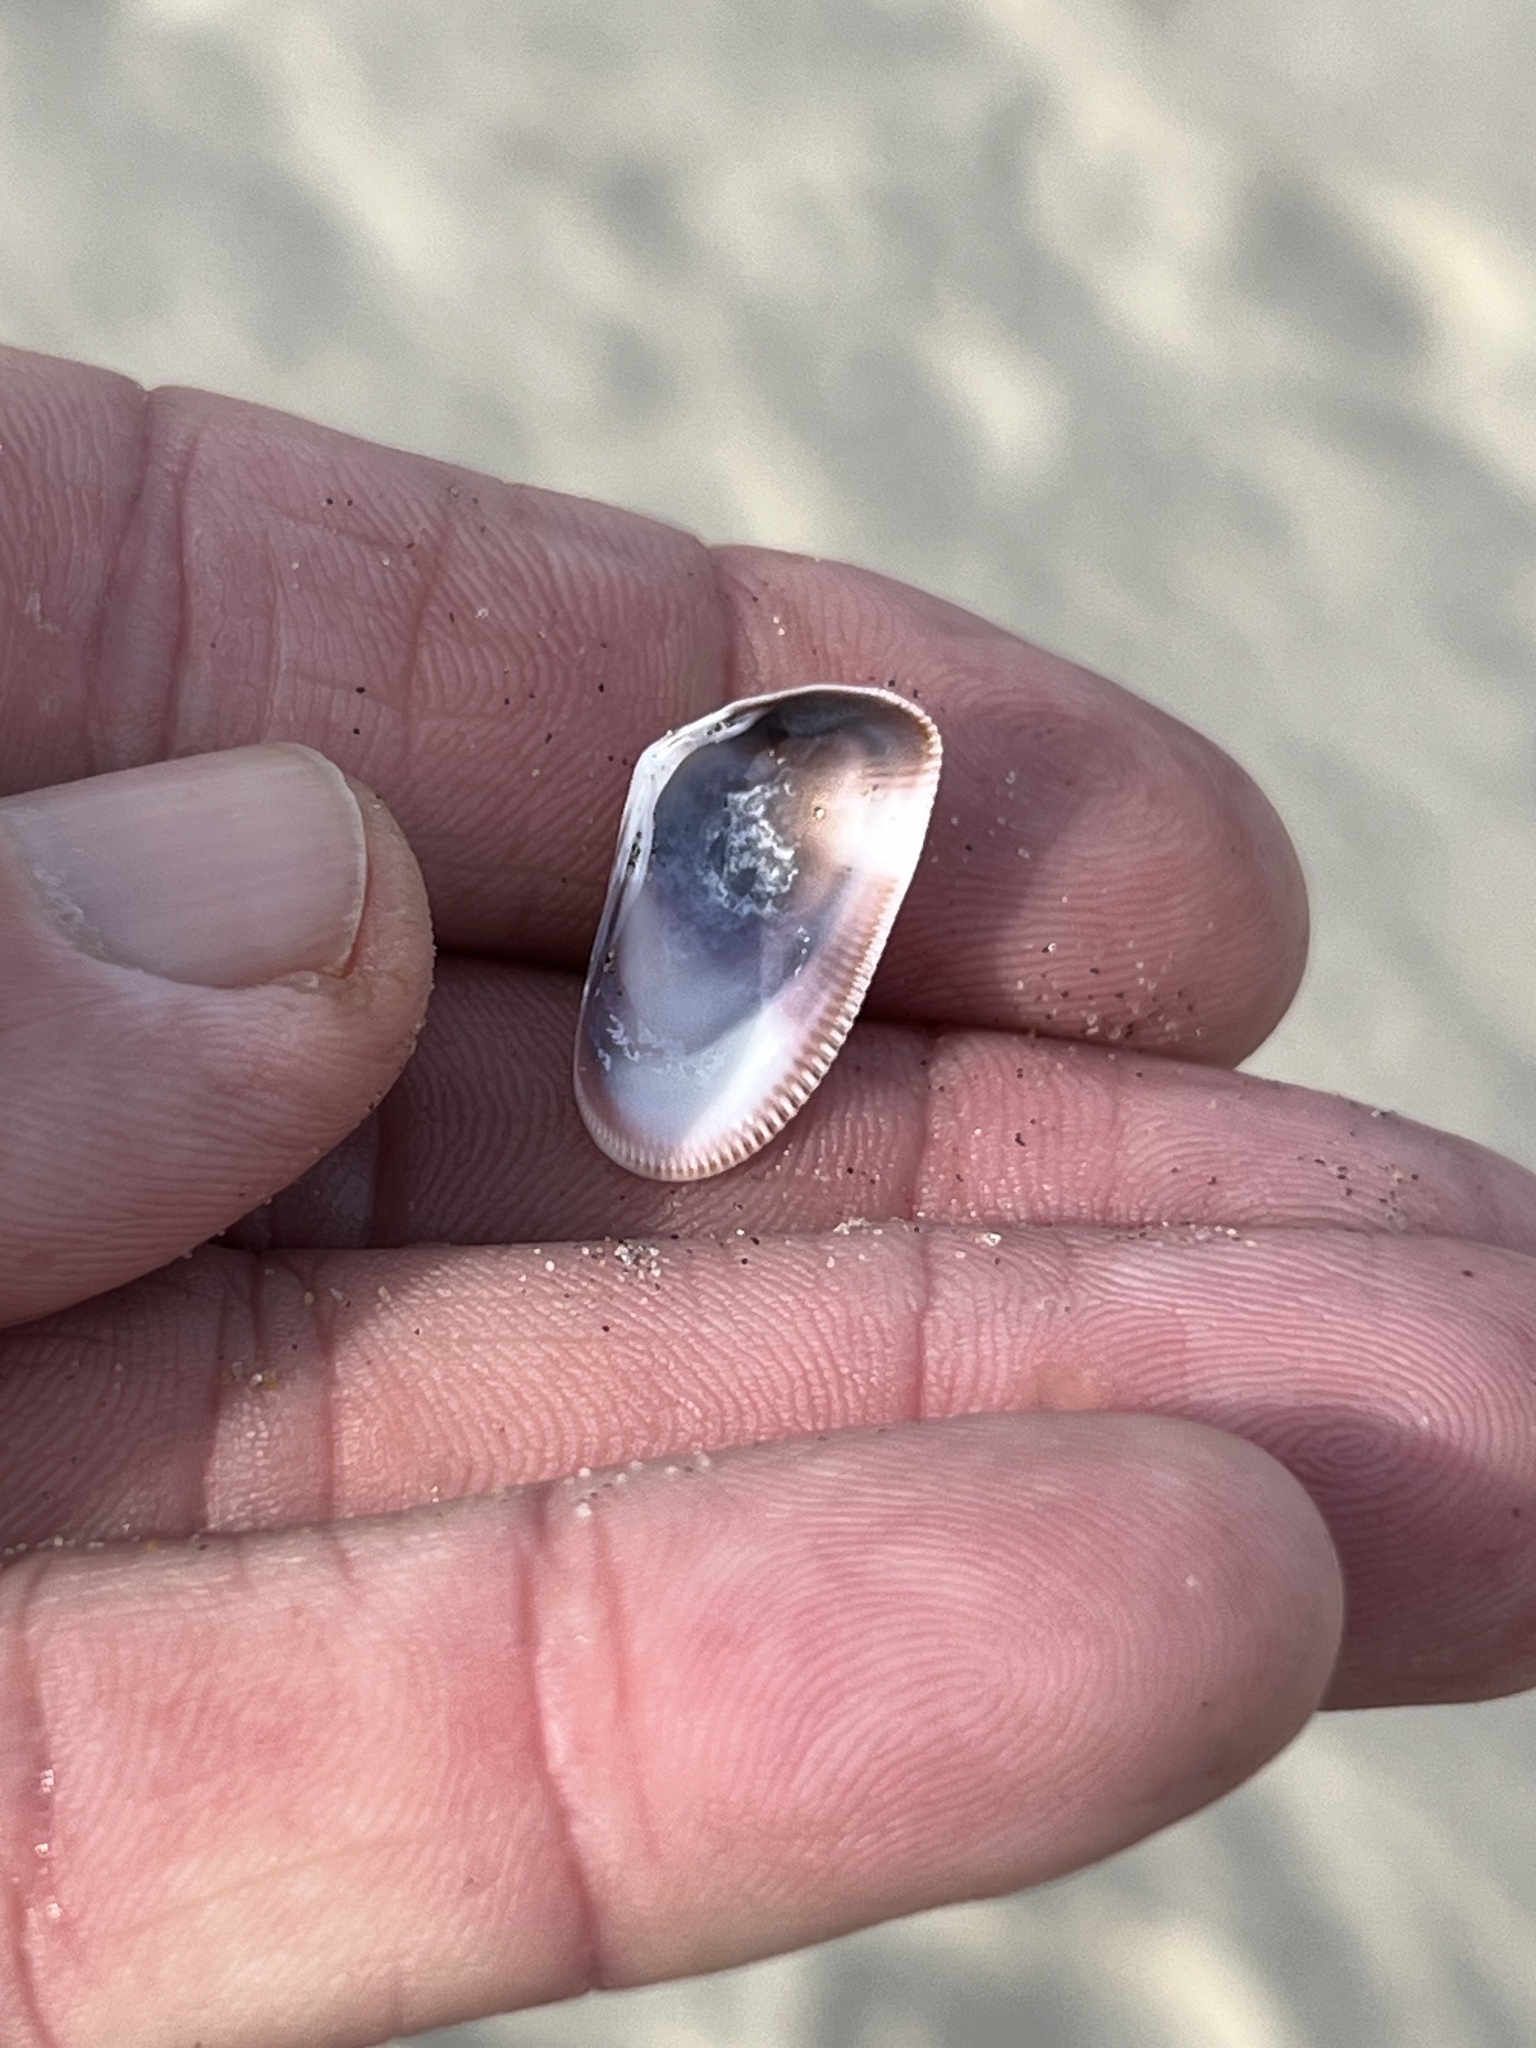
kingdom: Animalia
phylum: Mollusca
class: Bivalvia
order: Cardiida
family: Donacidae
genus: Donax
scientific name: Donax gouldii
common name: Gould beanclam
